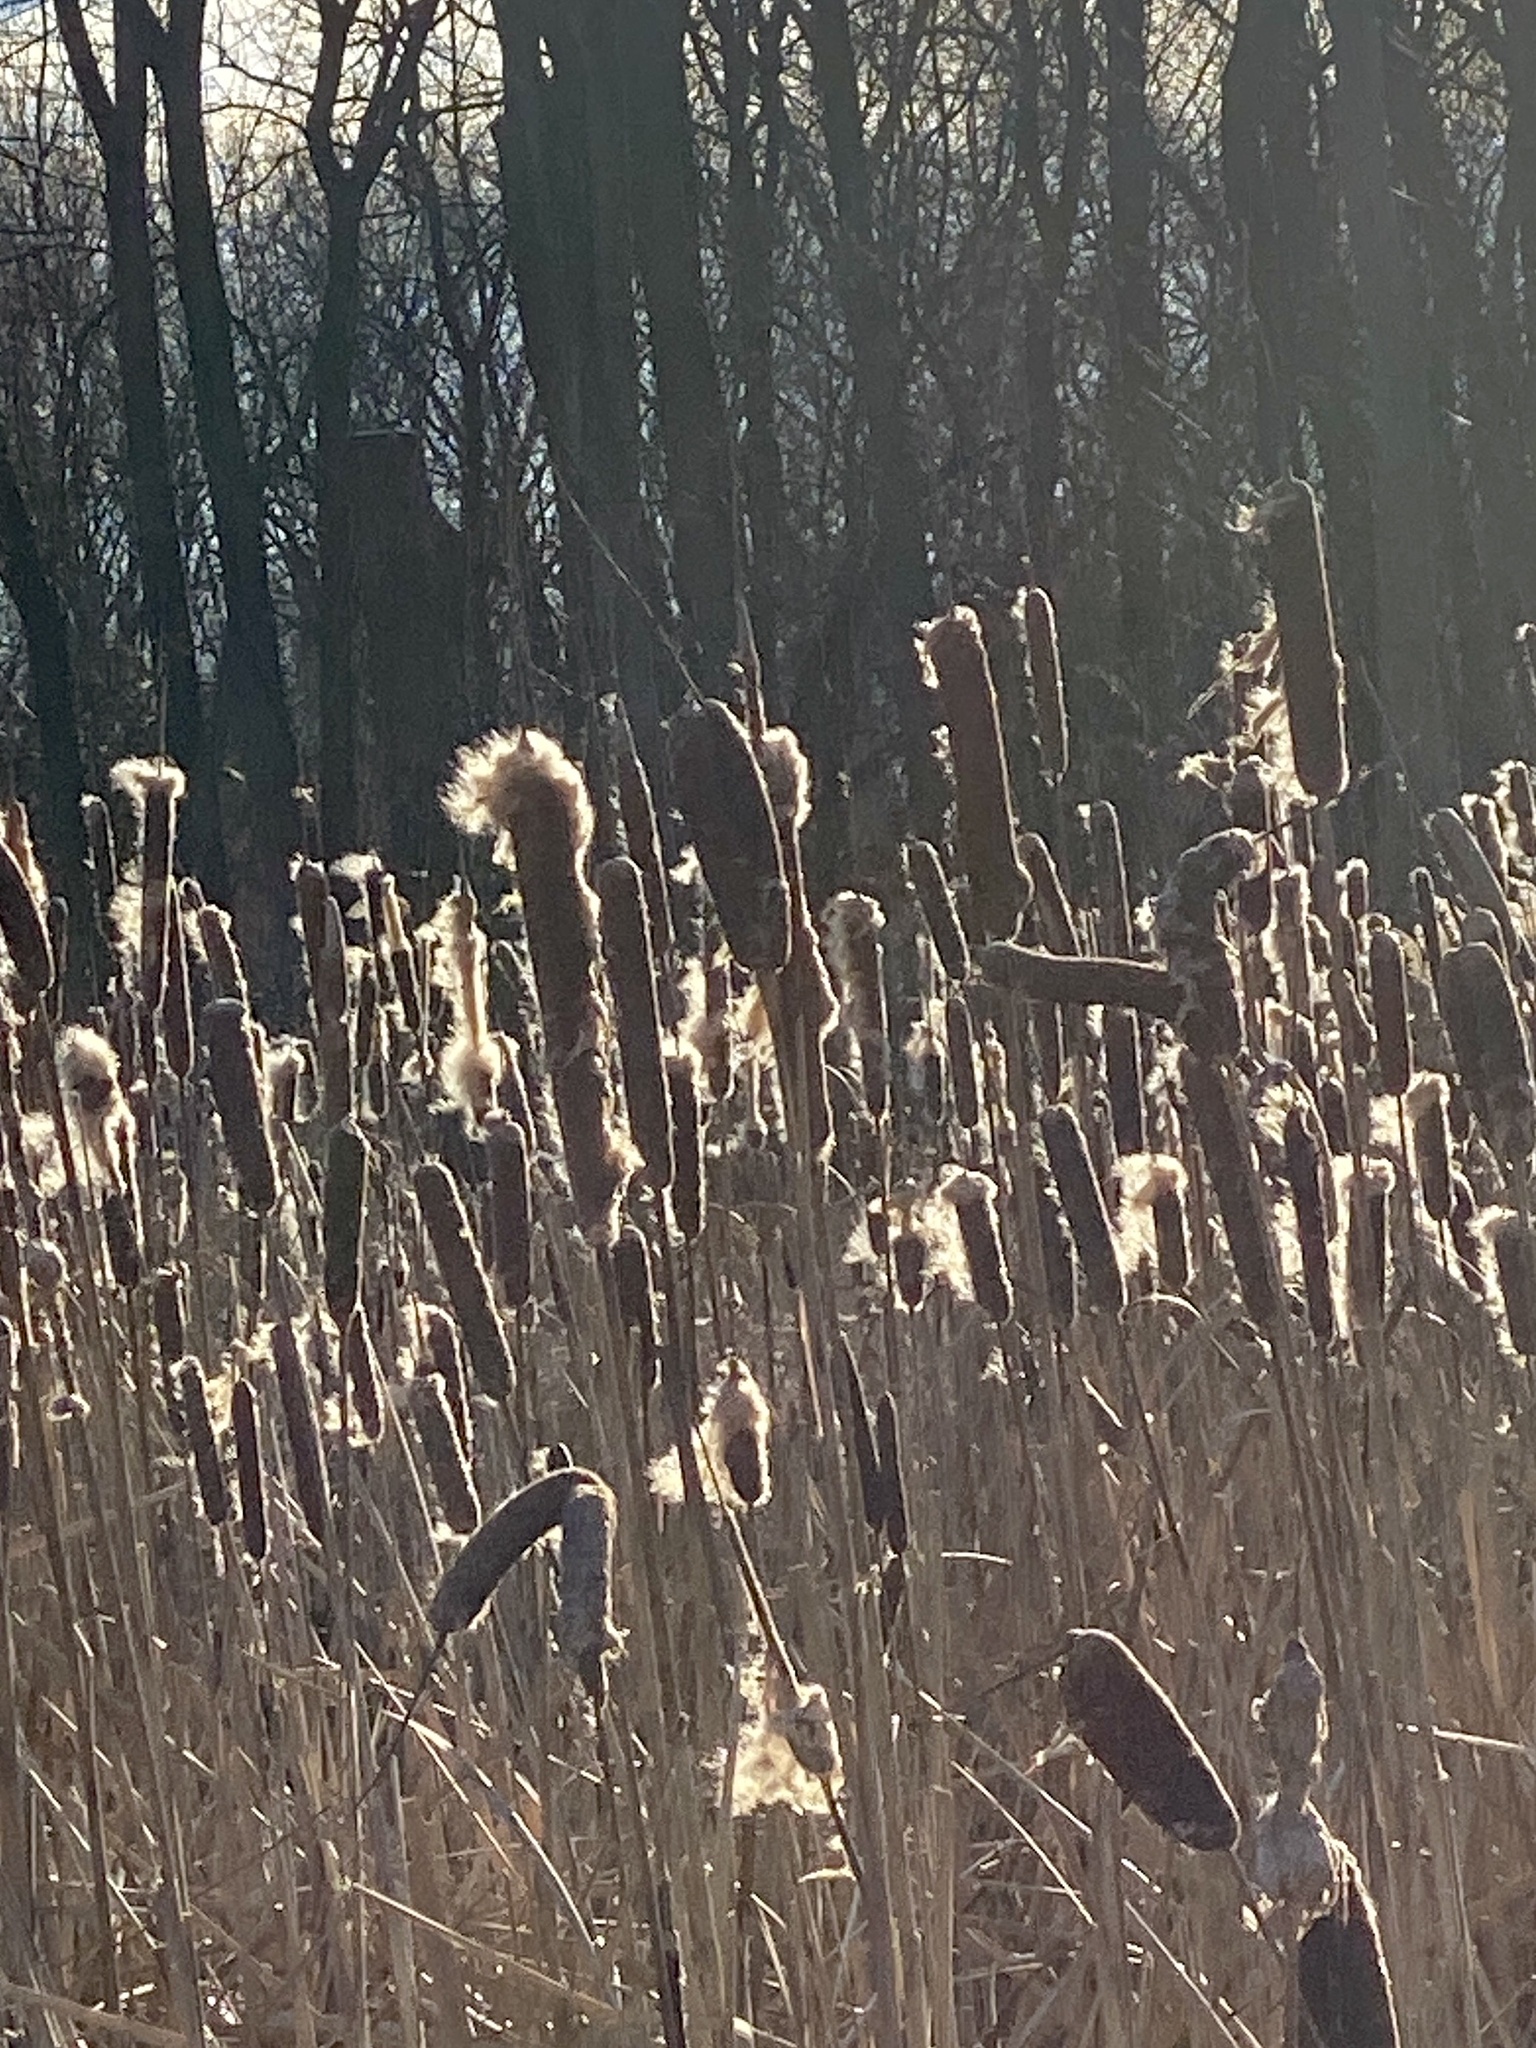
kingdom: Plantae
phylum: Tracheophyta
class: Liliopsida
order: Poales
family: Typhaceae
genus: Typha
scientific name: Typha
